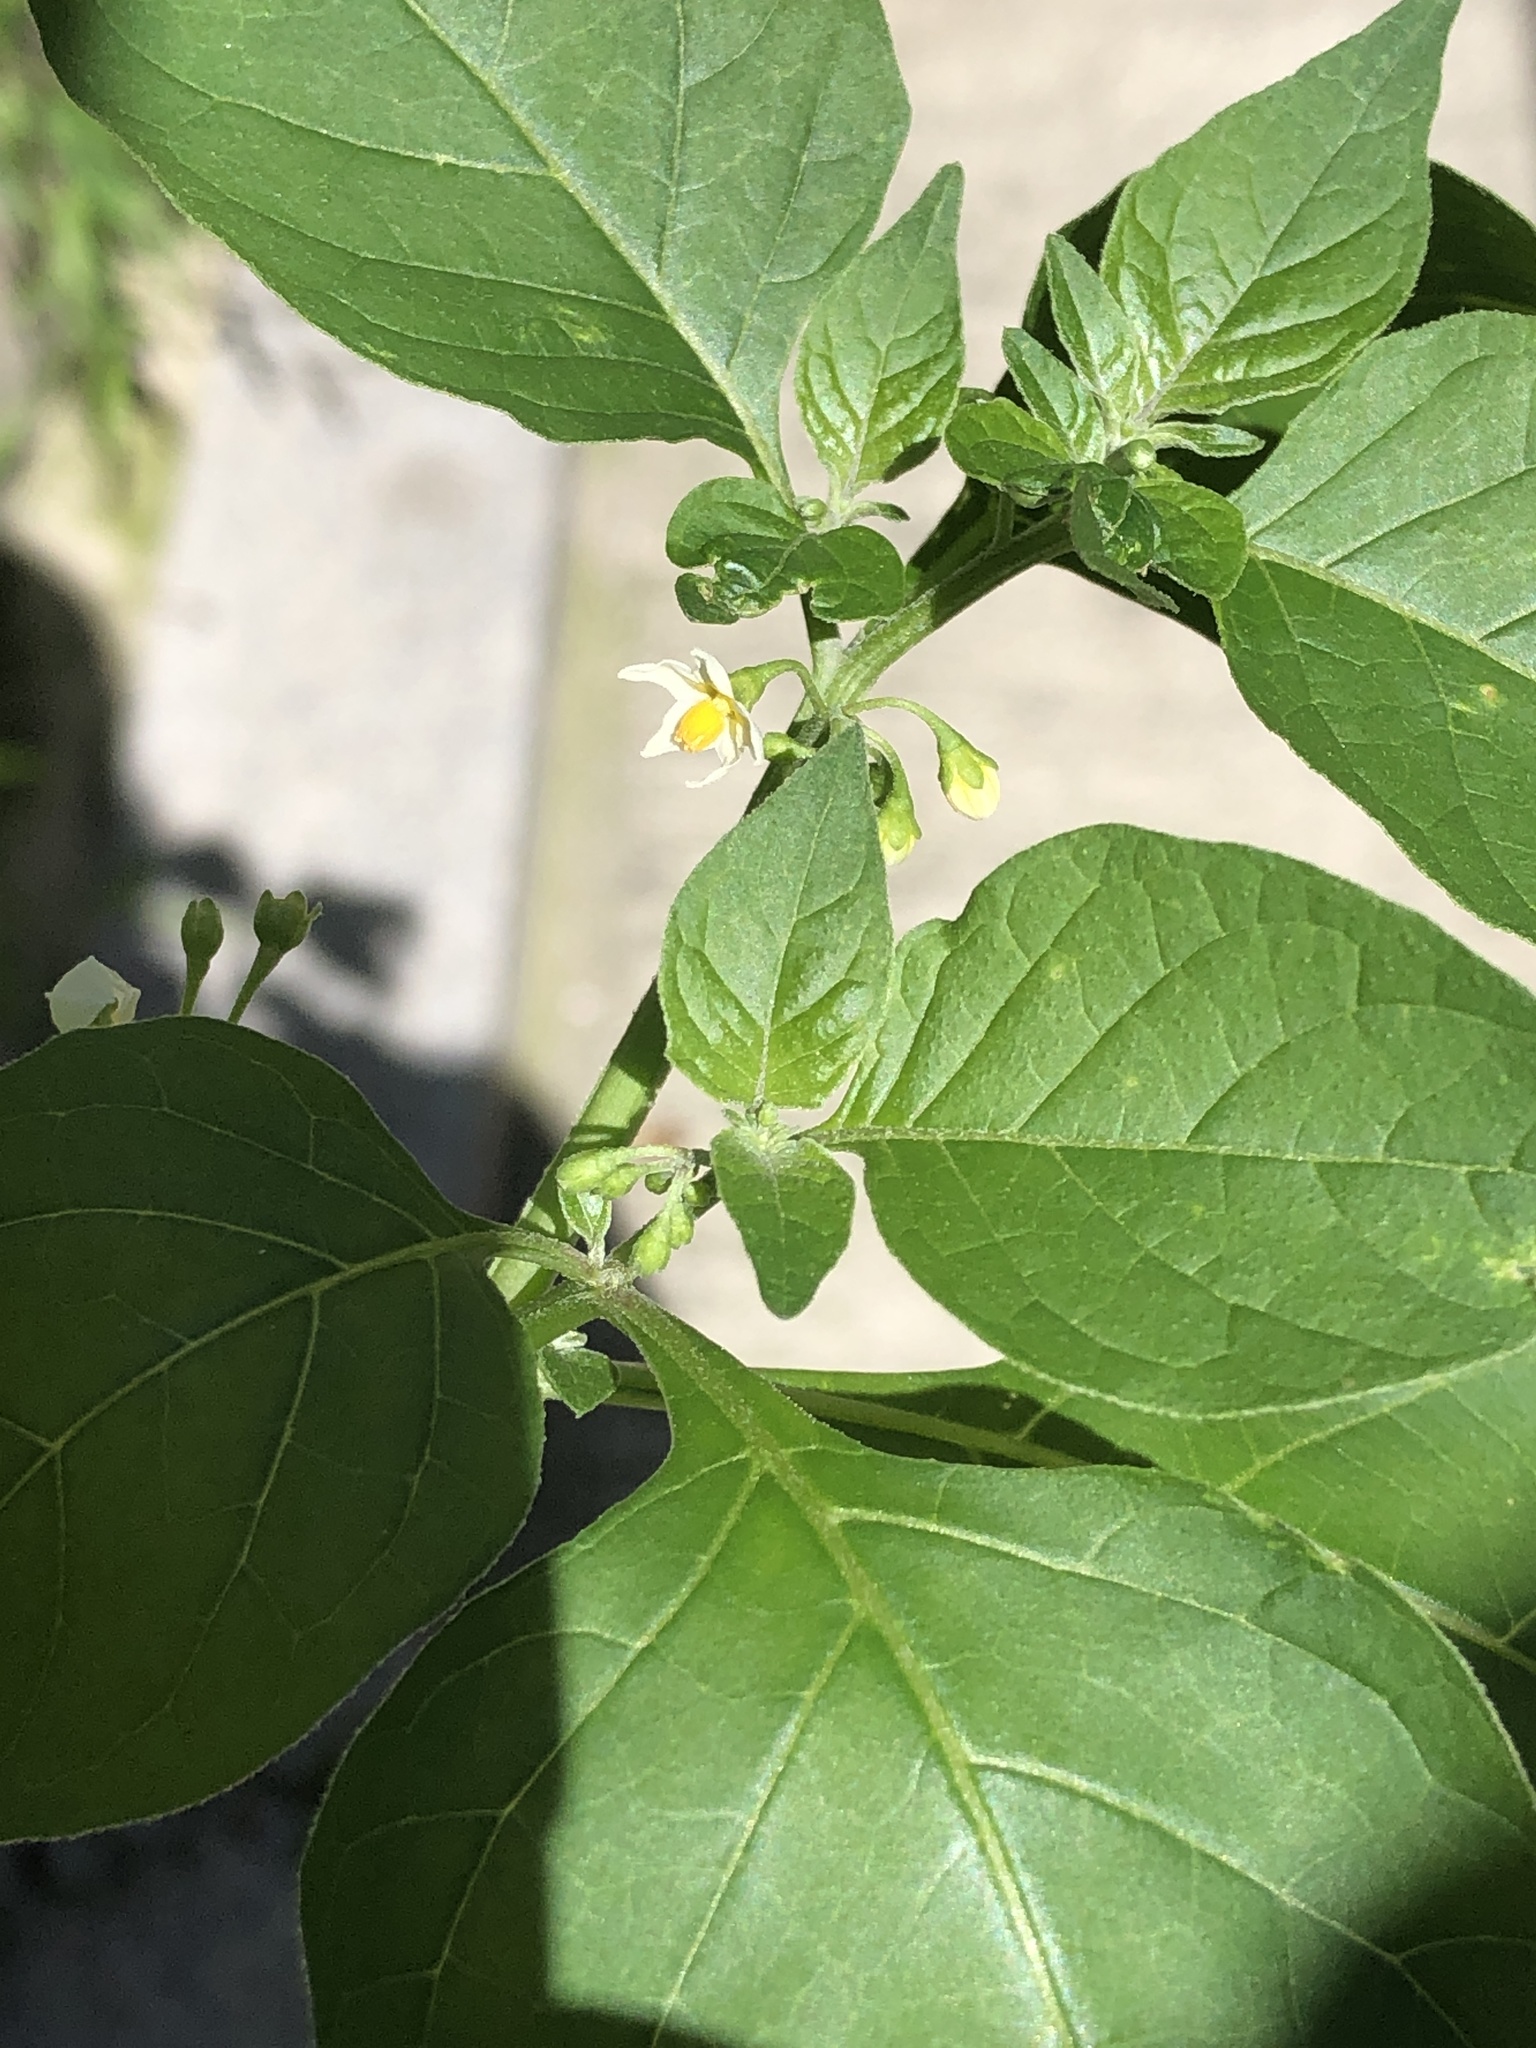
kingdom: Plantae
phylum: Tracheophyta
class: Magnoliopsida
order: Solanales
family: Solanaceae
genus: Solanum
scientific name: Solanum nigrum
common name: Black nightshade
